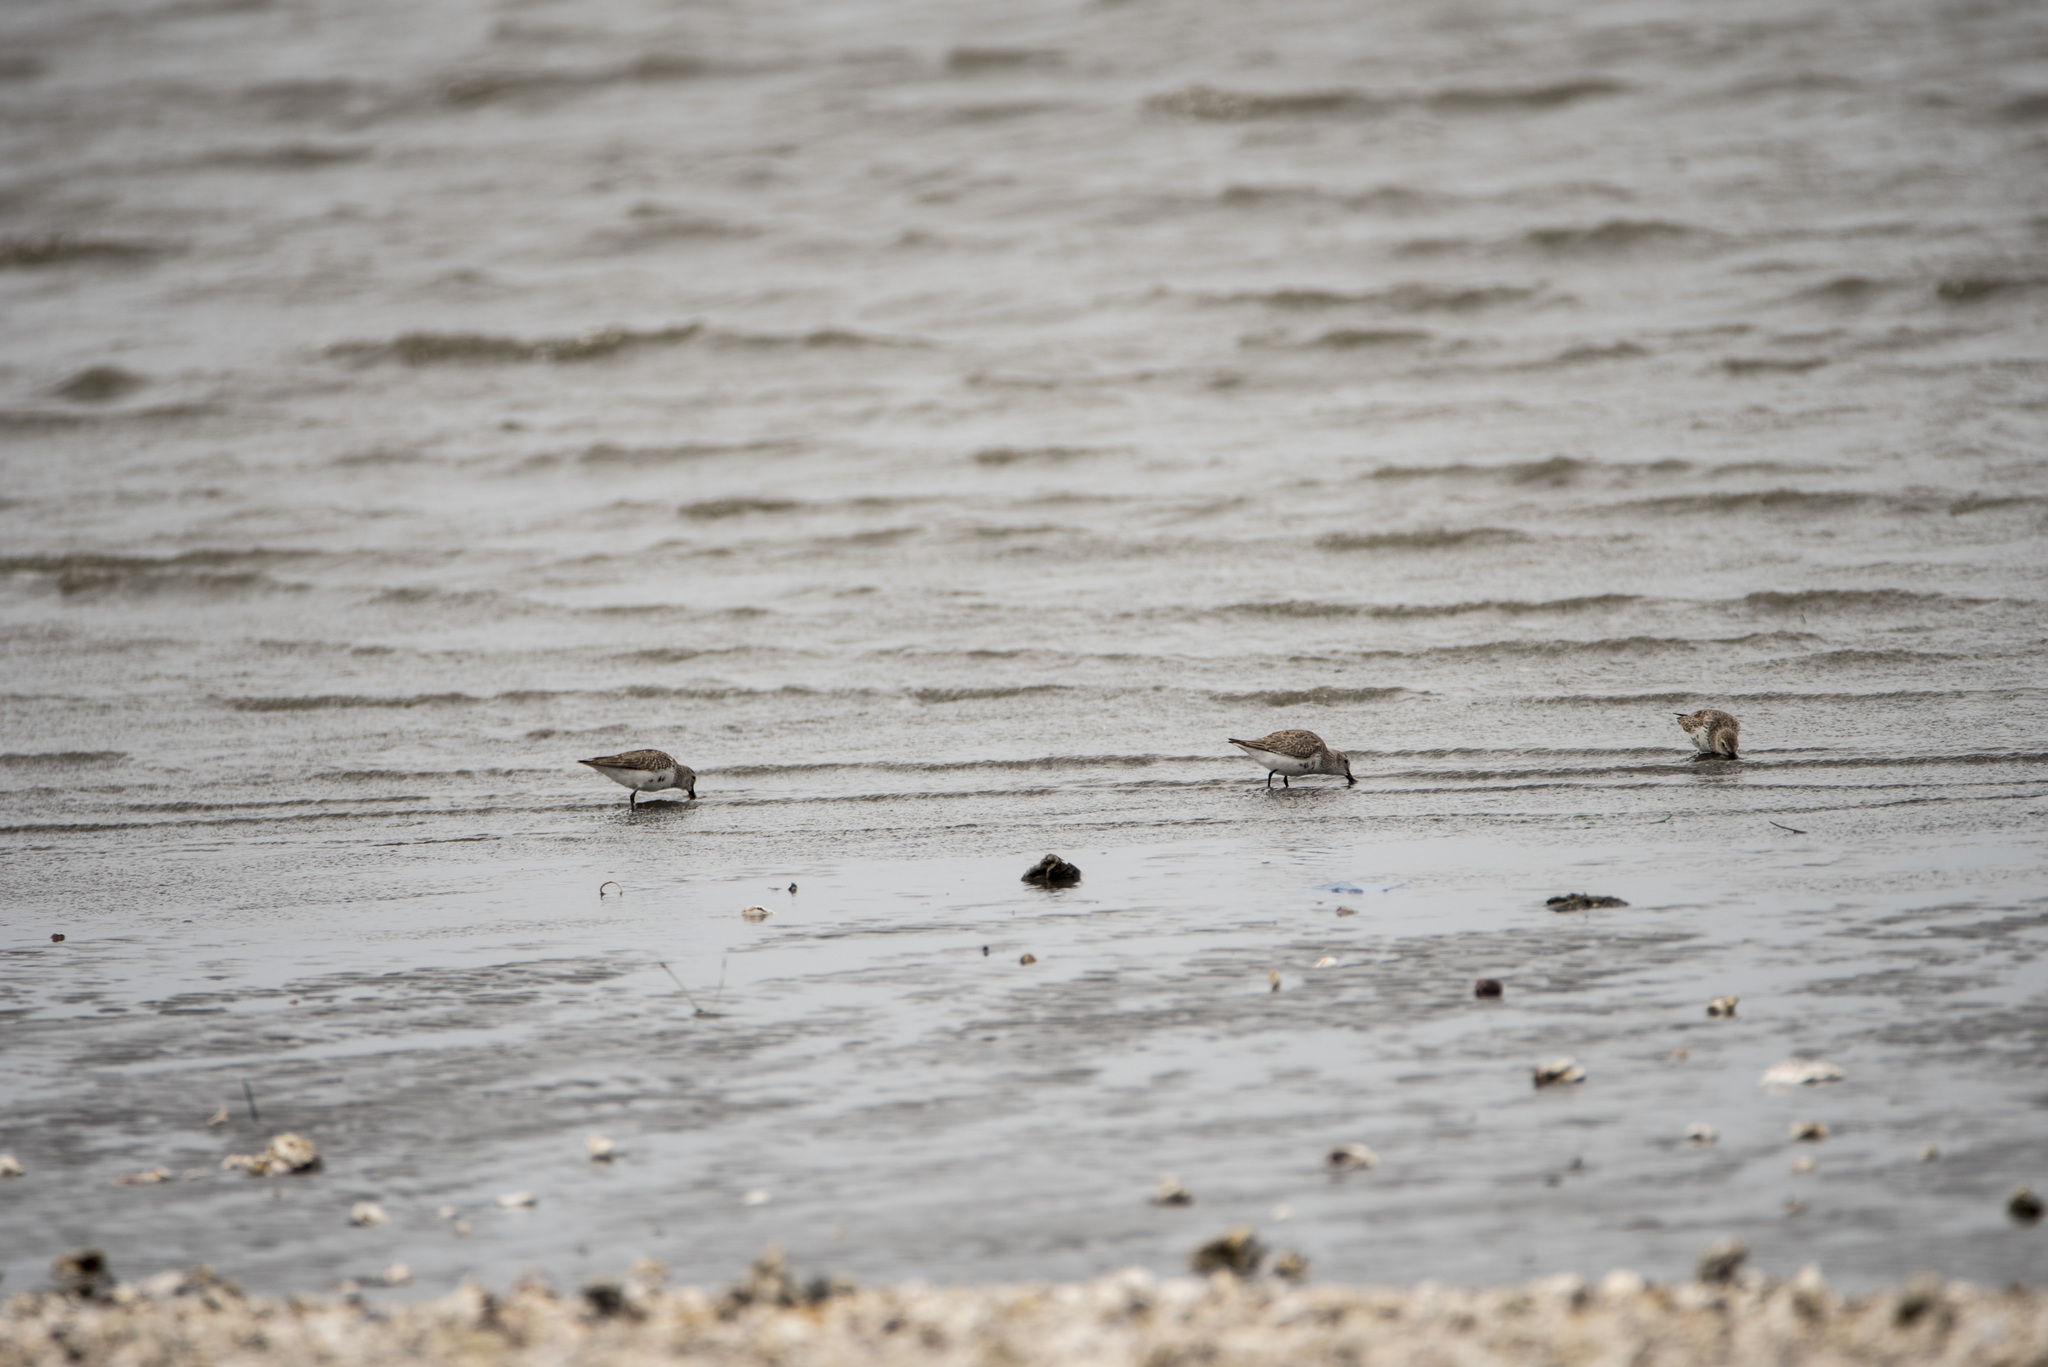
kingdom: Animalia
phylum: Chordata
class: Aves
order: Charadriiformes
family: Scolopacidae
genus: Calidris
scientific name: Calidris alpina
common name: Dunlin
